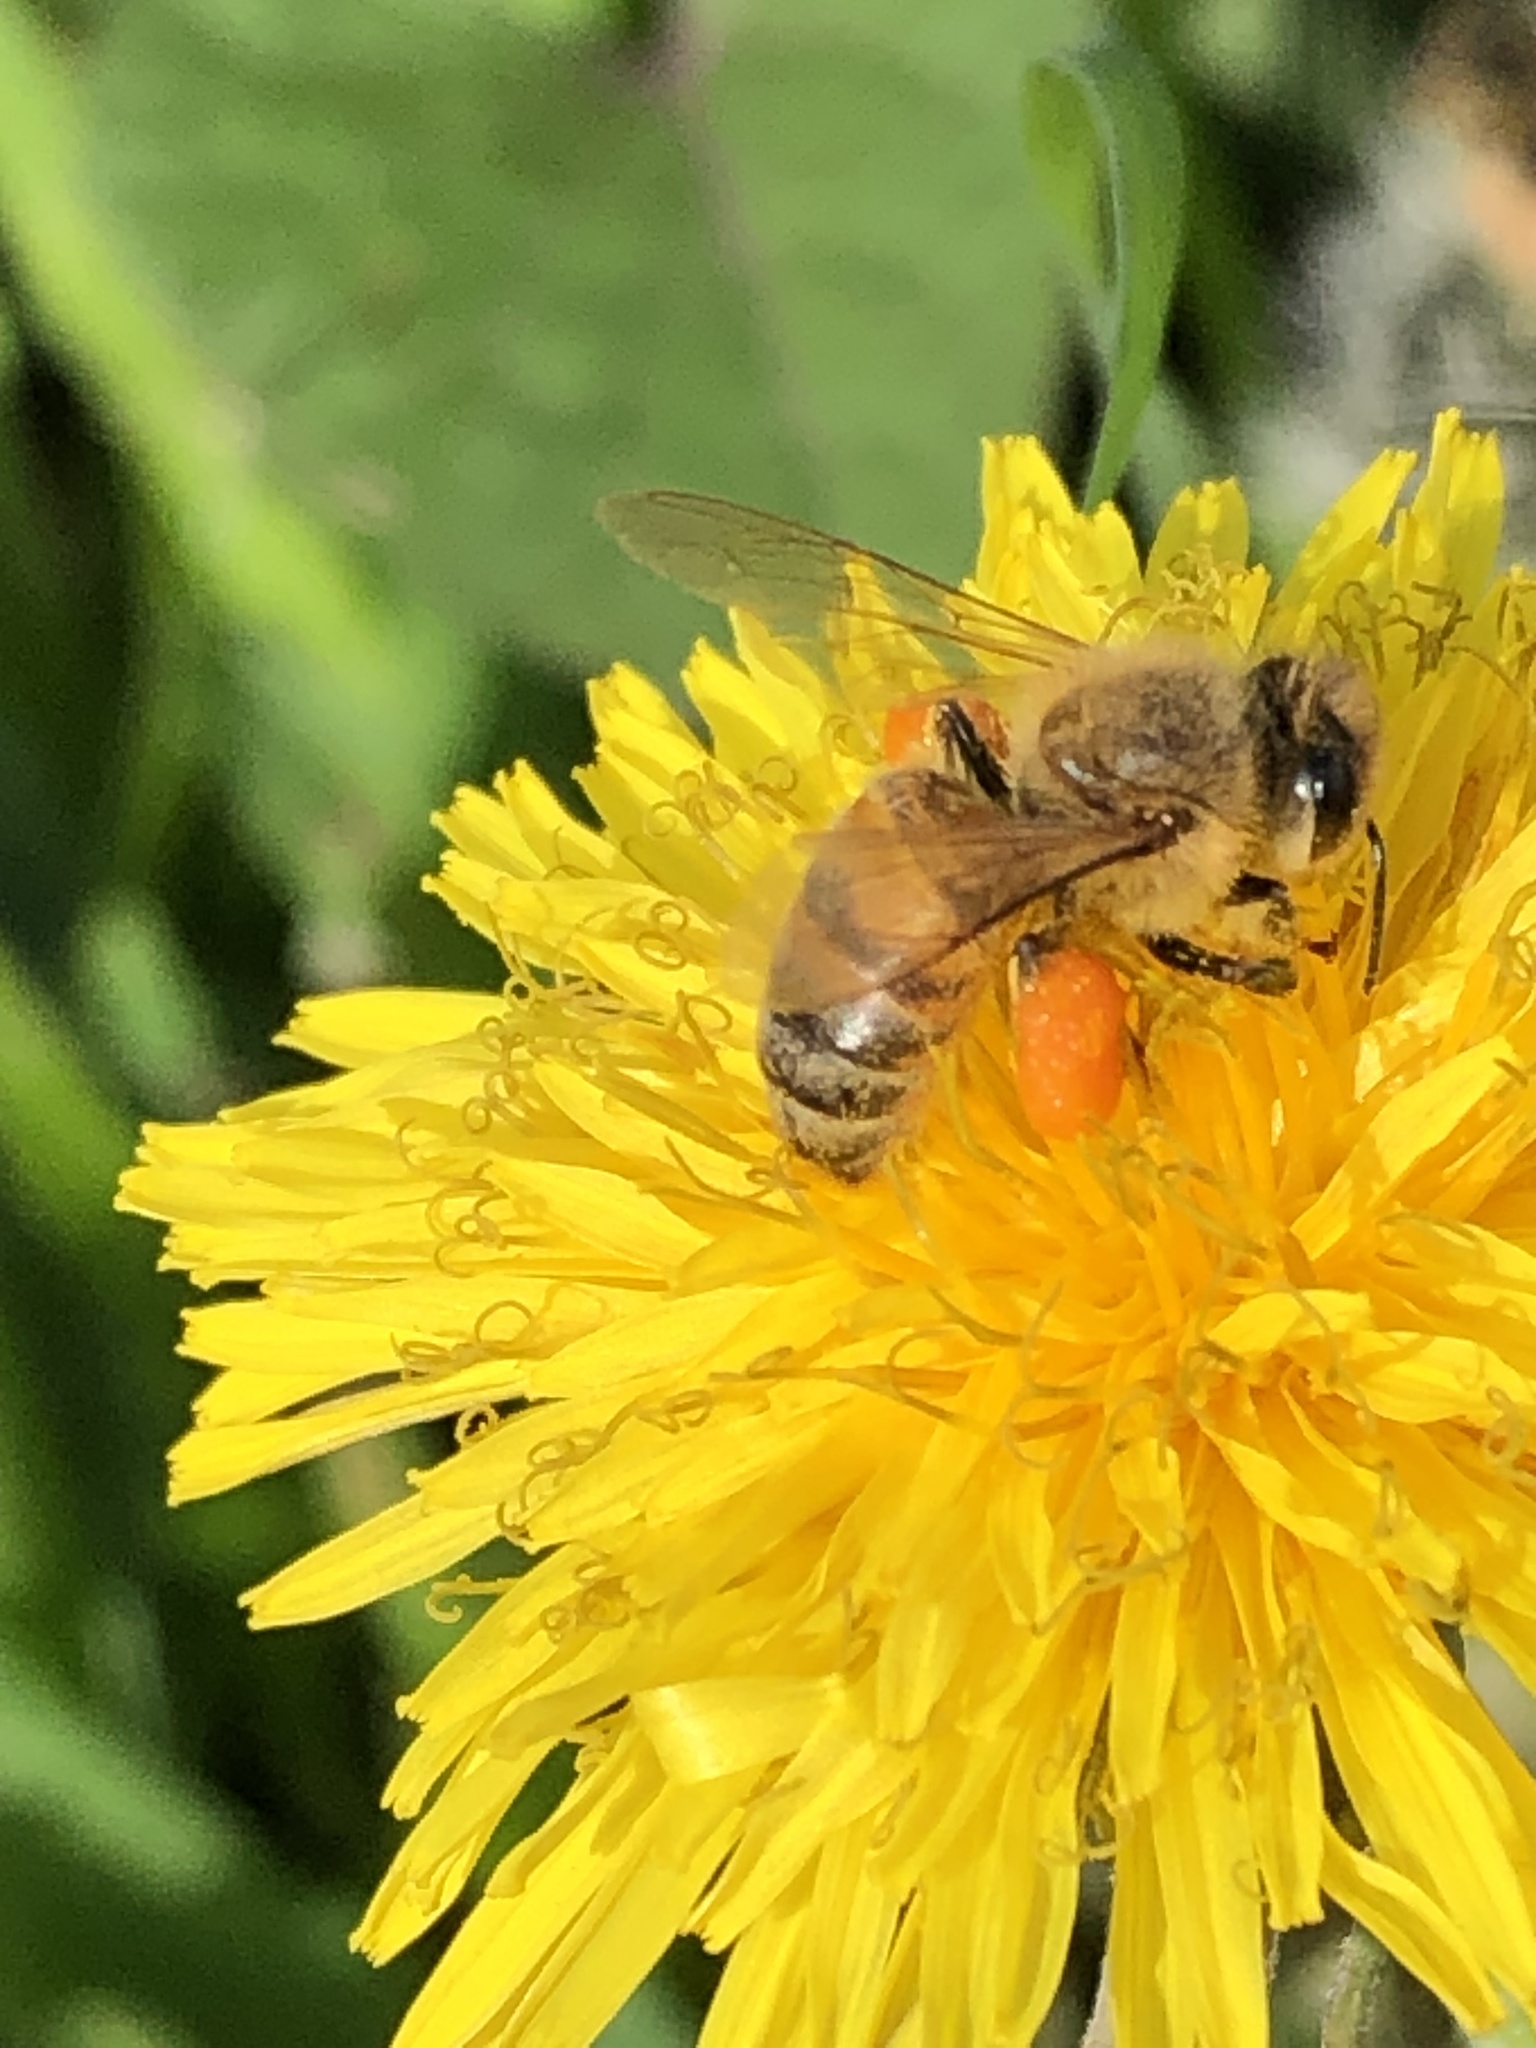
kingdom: Animalia
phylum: Arthropoda
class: Insecta
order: Hymenoptera
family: Apidae
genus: Apis
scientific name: Apis mellifera
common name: Honey bee
